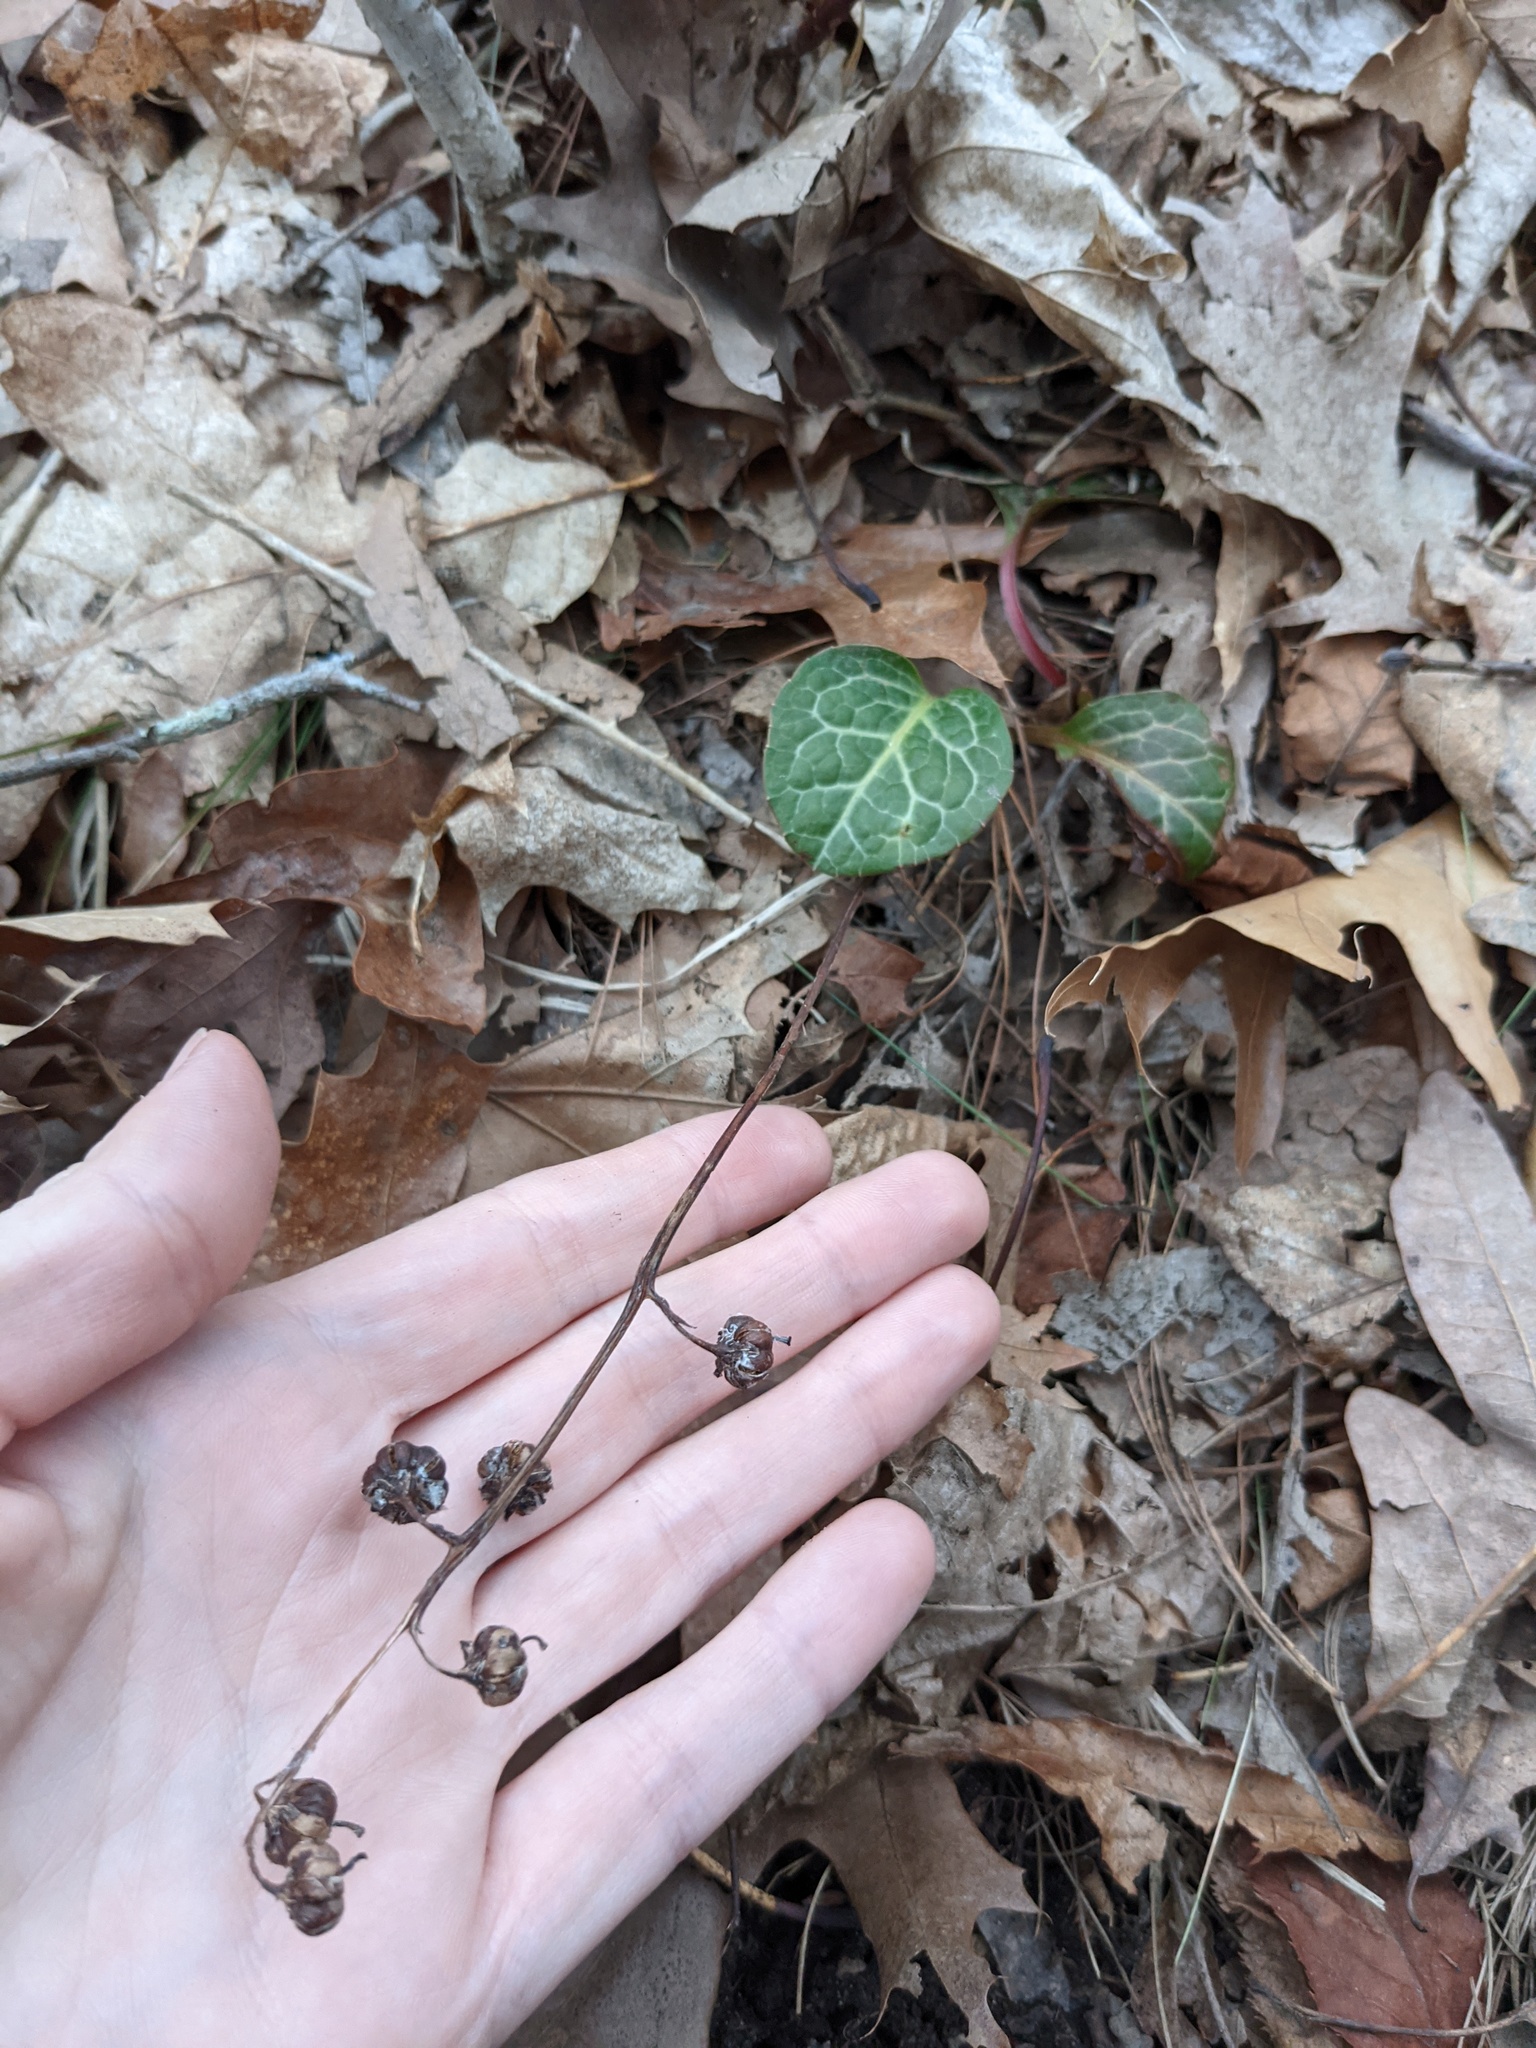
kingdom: Plantae
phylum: Tracheophyta
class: Magnoliopsida
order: Ericales
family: Ericaceae
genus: Pyrola
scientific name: Pyrola americana
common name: American wintergreen
